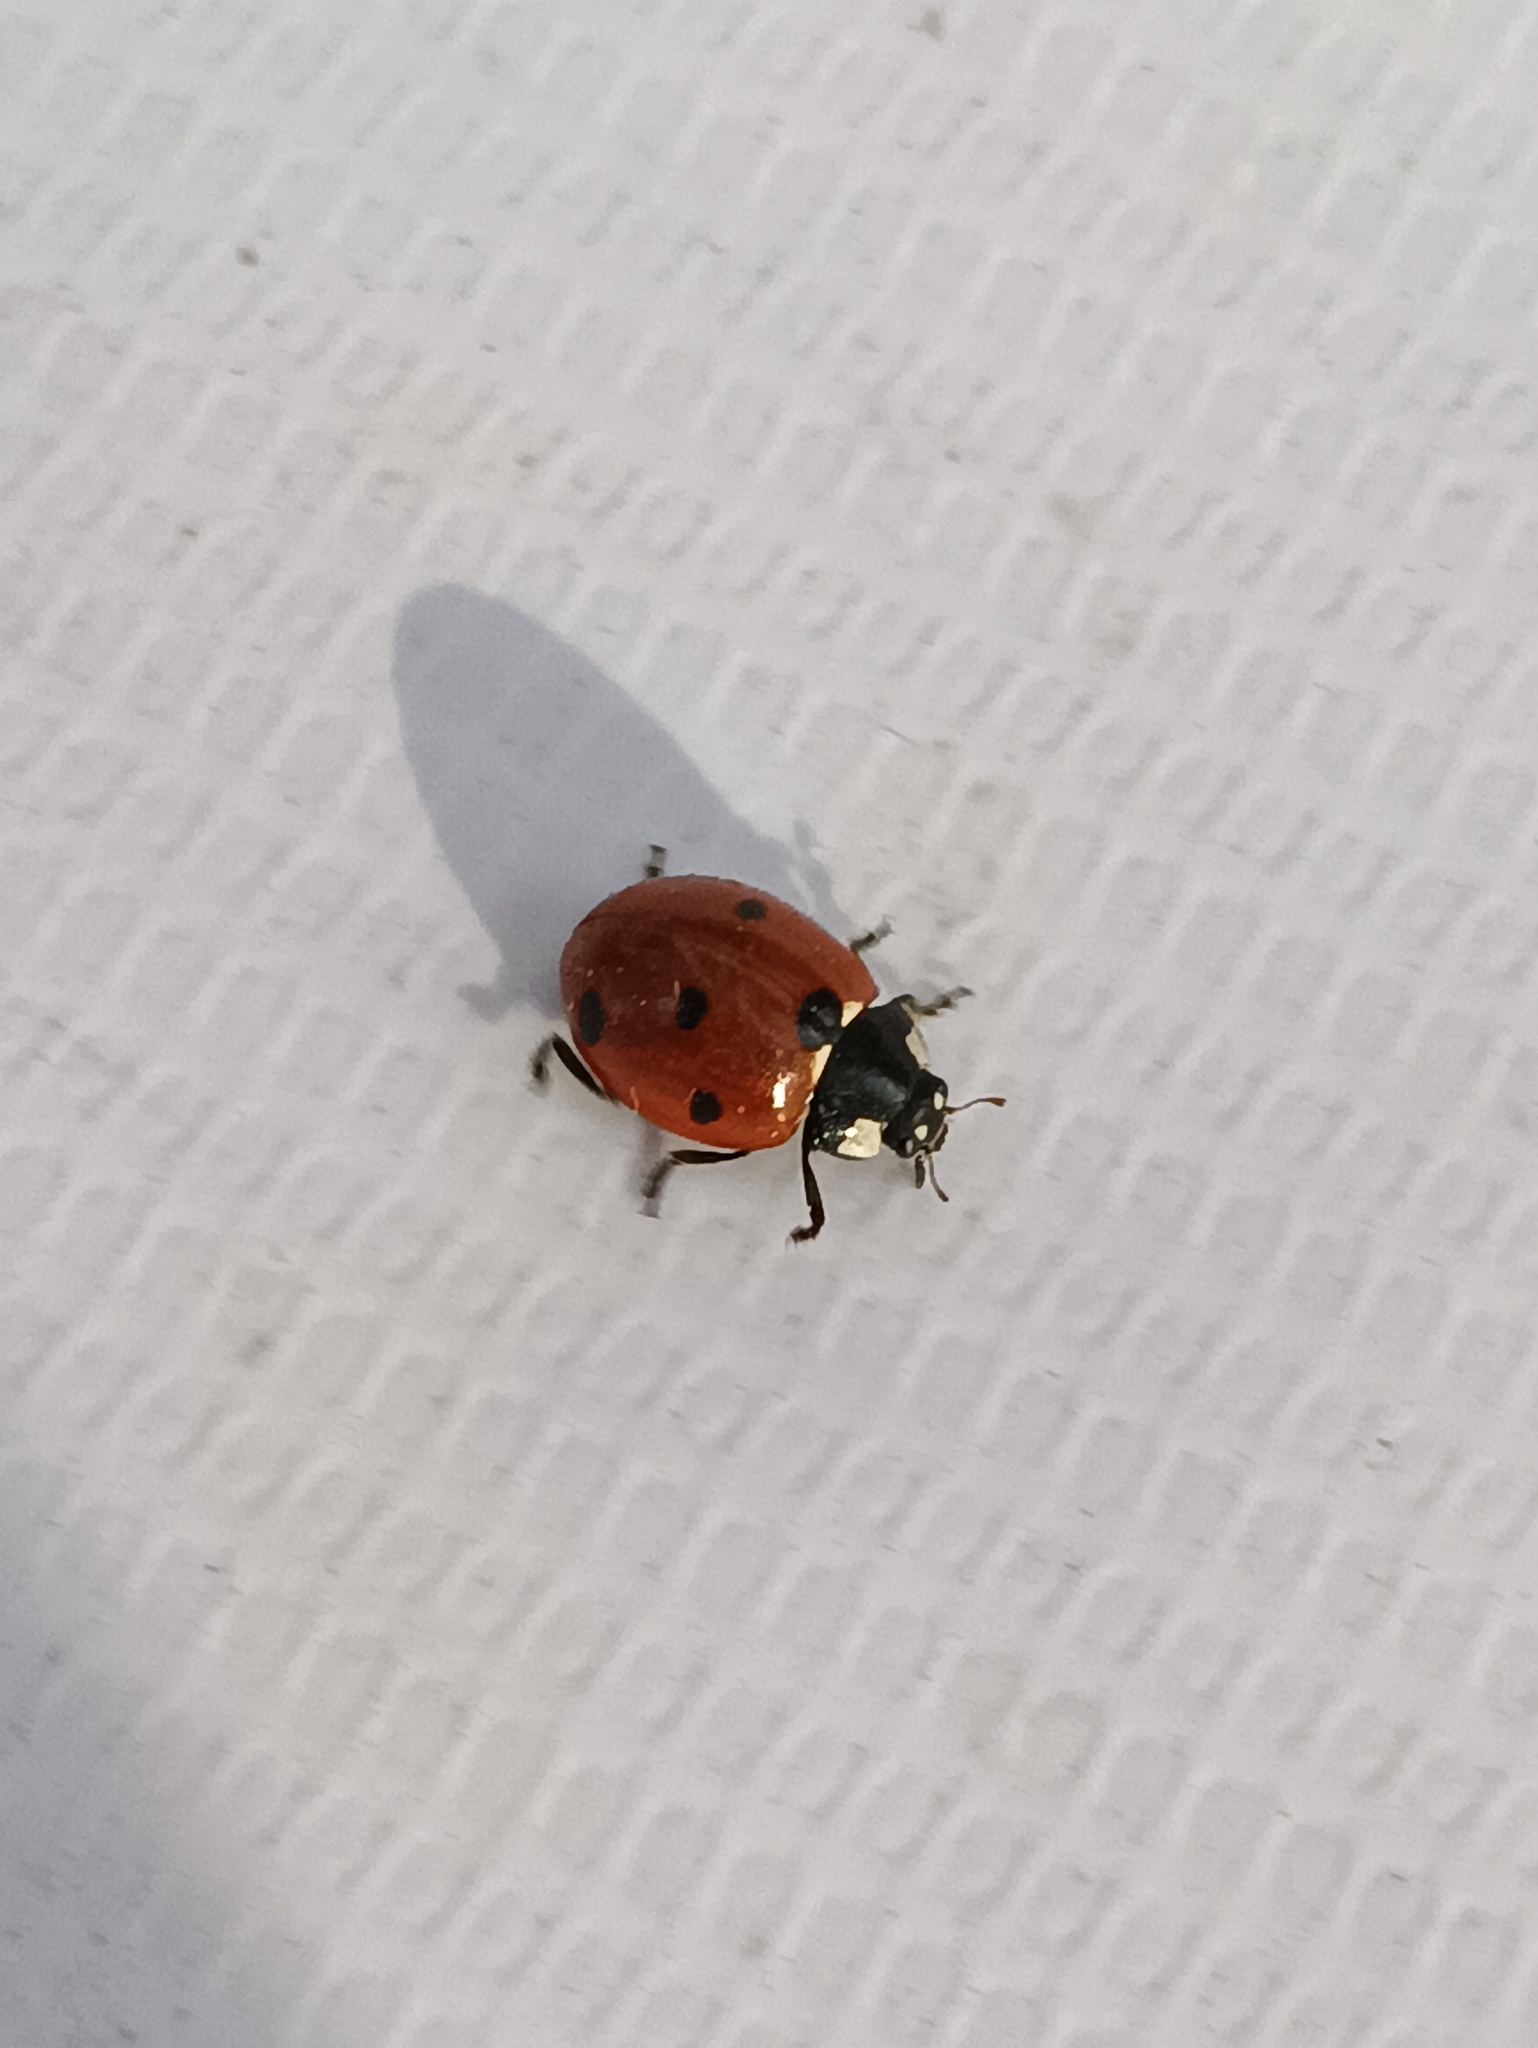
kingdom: Animalia
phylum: Arthropoda
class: Insecta
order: Coleoptera
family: Coccinellidae
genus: Coccinella
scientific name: Coccinella septempunctata
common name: Sevenspotted lady beetle
